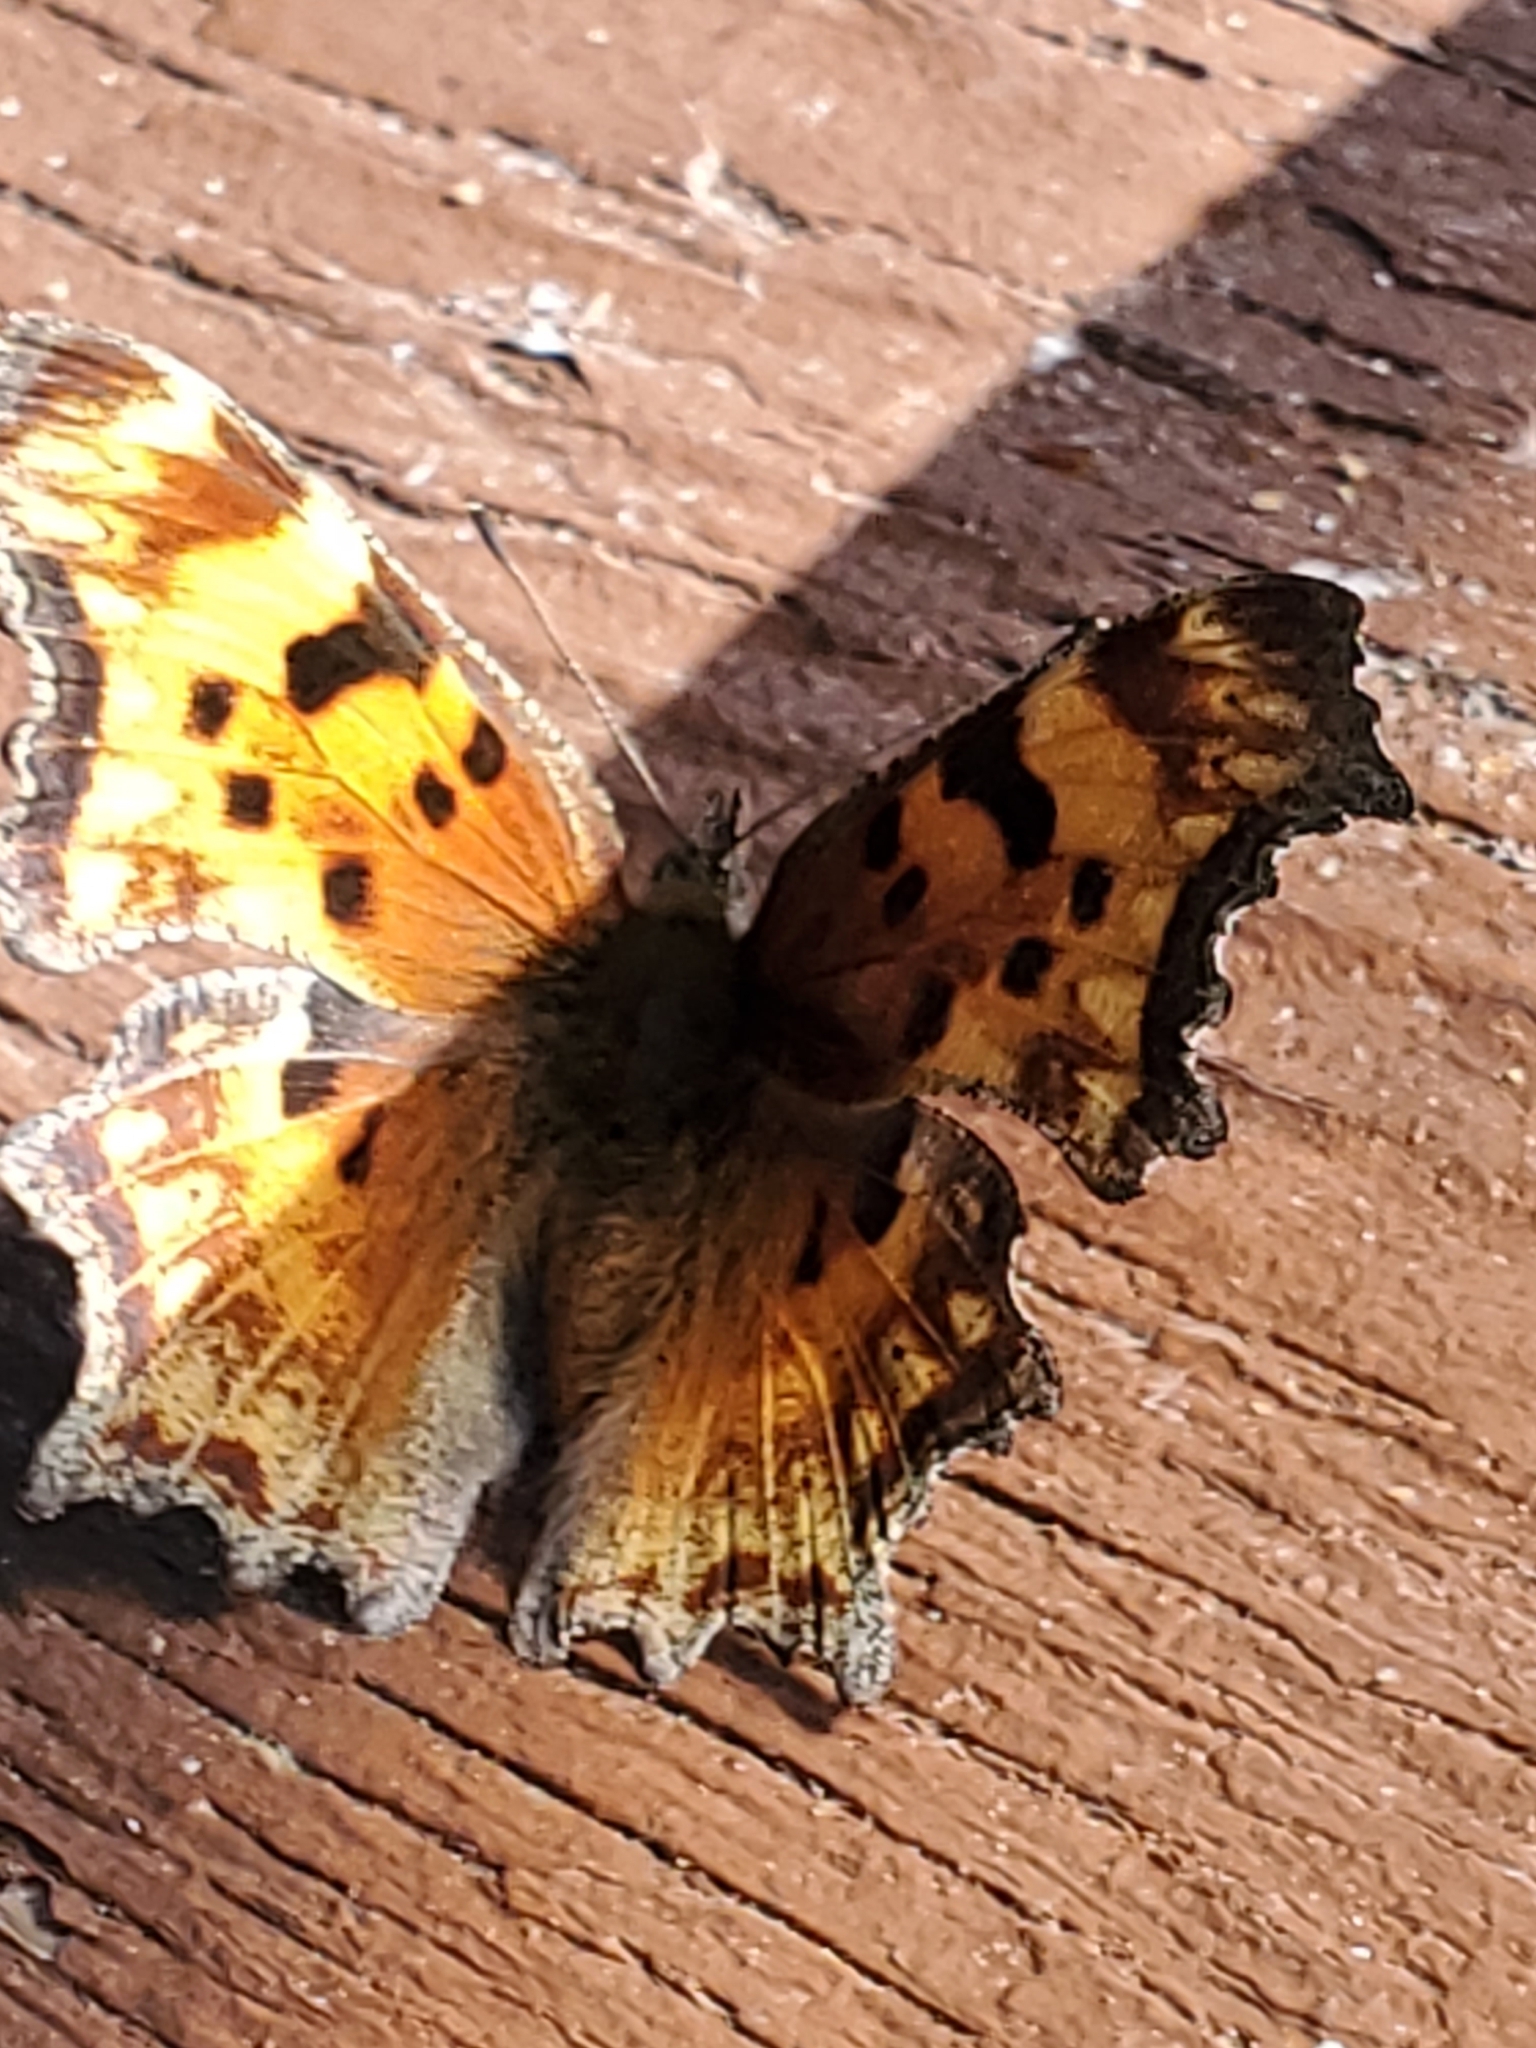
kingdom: Animalia
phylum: Arthropoda
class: Insecta
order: Lepidoptera
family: Nymphalidae
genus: Polygonia
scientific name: Polygonia gracilis
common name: Hoary comma
